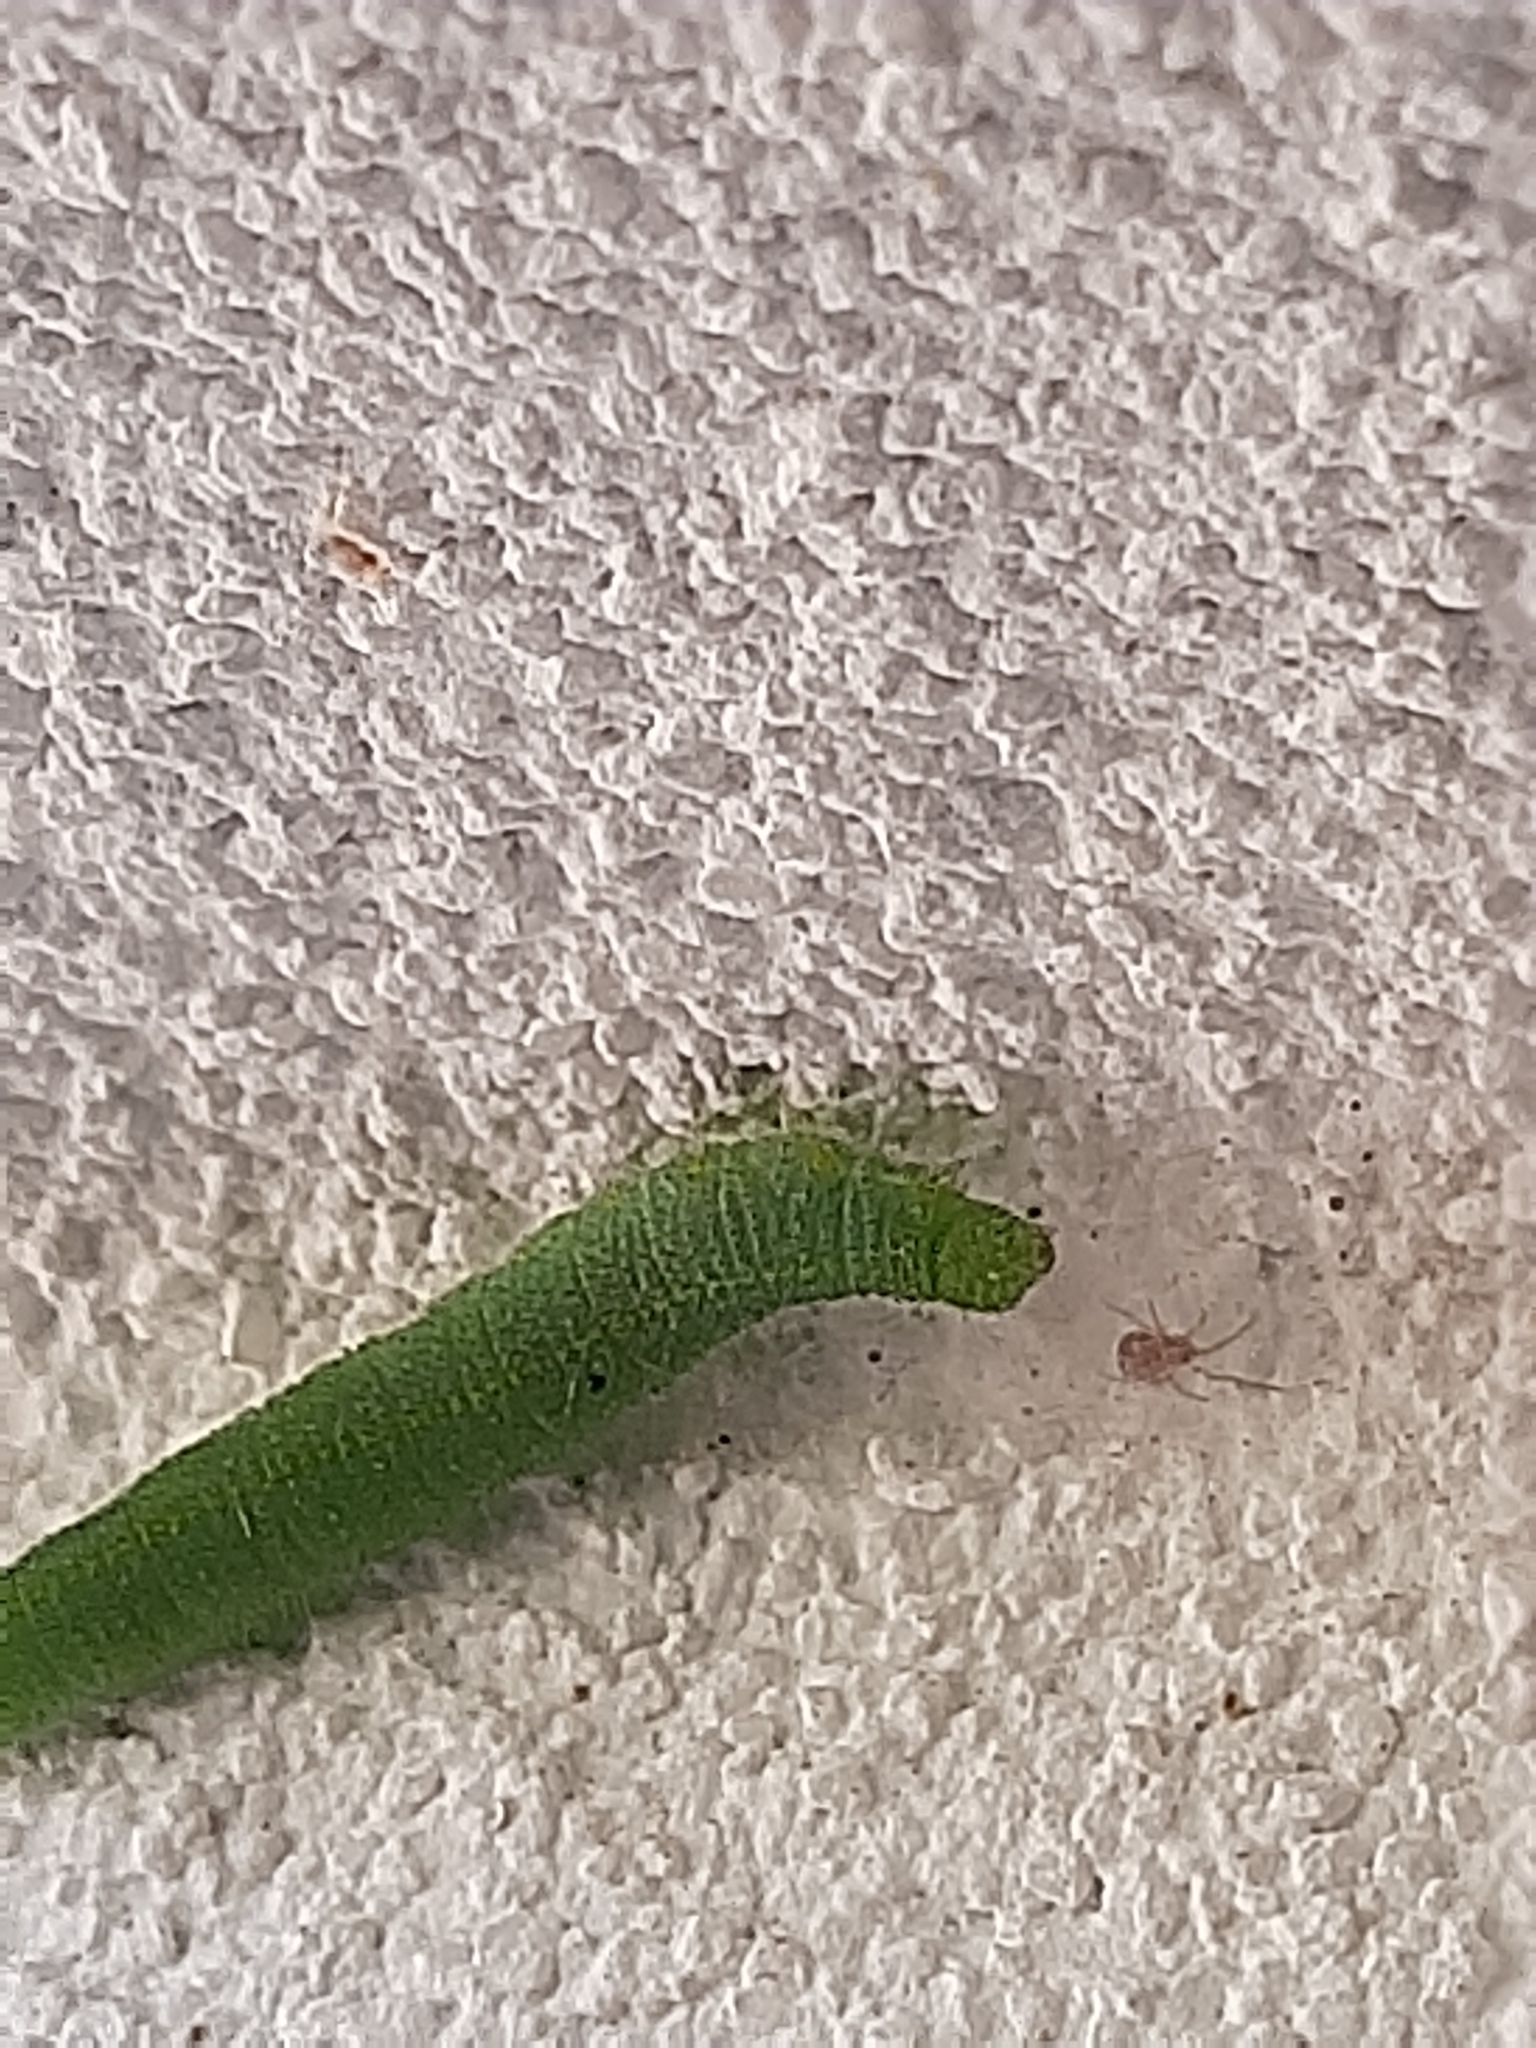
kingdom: Animalia
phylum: Arthropoda
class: Insecta
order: Lepidoptera
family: Pieridae
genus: Pieris
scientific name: Pieris rapae
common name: Small white
